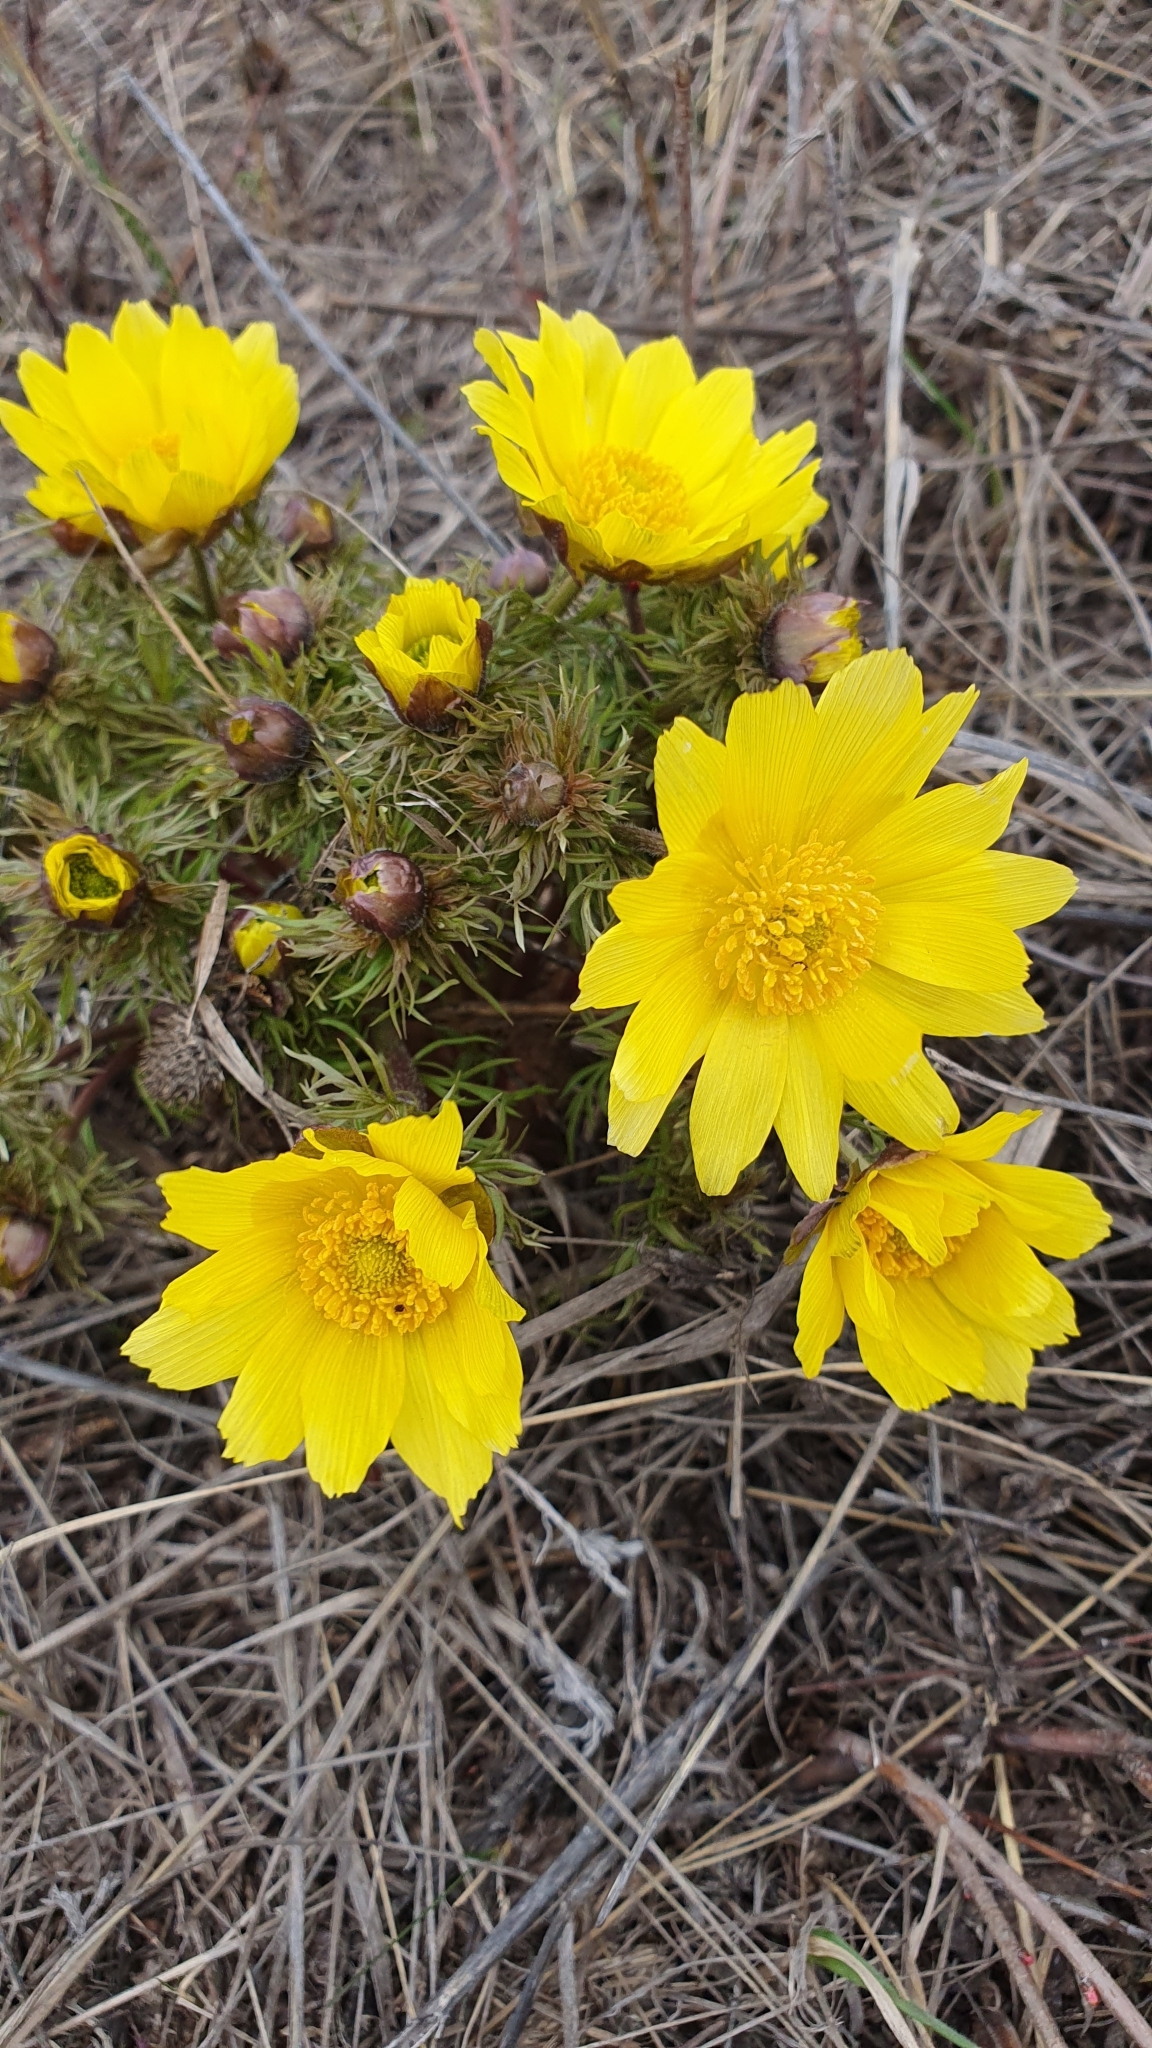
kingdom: Plantae
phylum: Tracheophyta
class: Magnoliopsida
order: Ranunculales
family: Ranunculaceae
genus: Adonis
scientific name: Adonis vernalis
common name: Yellow pheasants-eye
